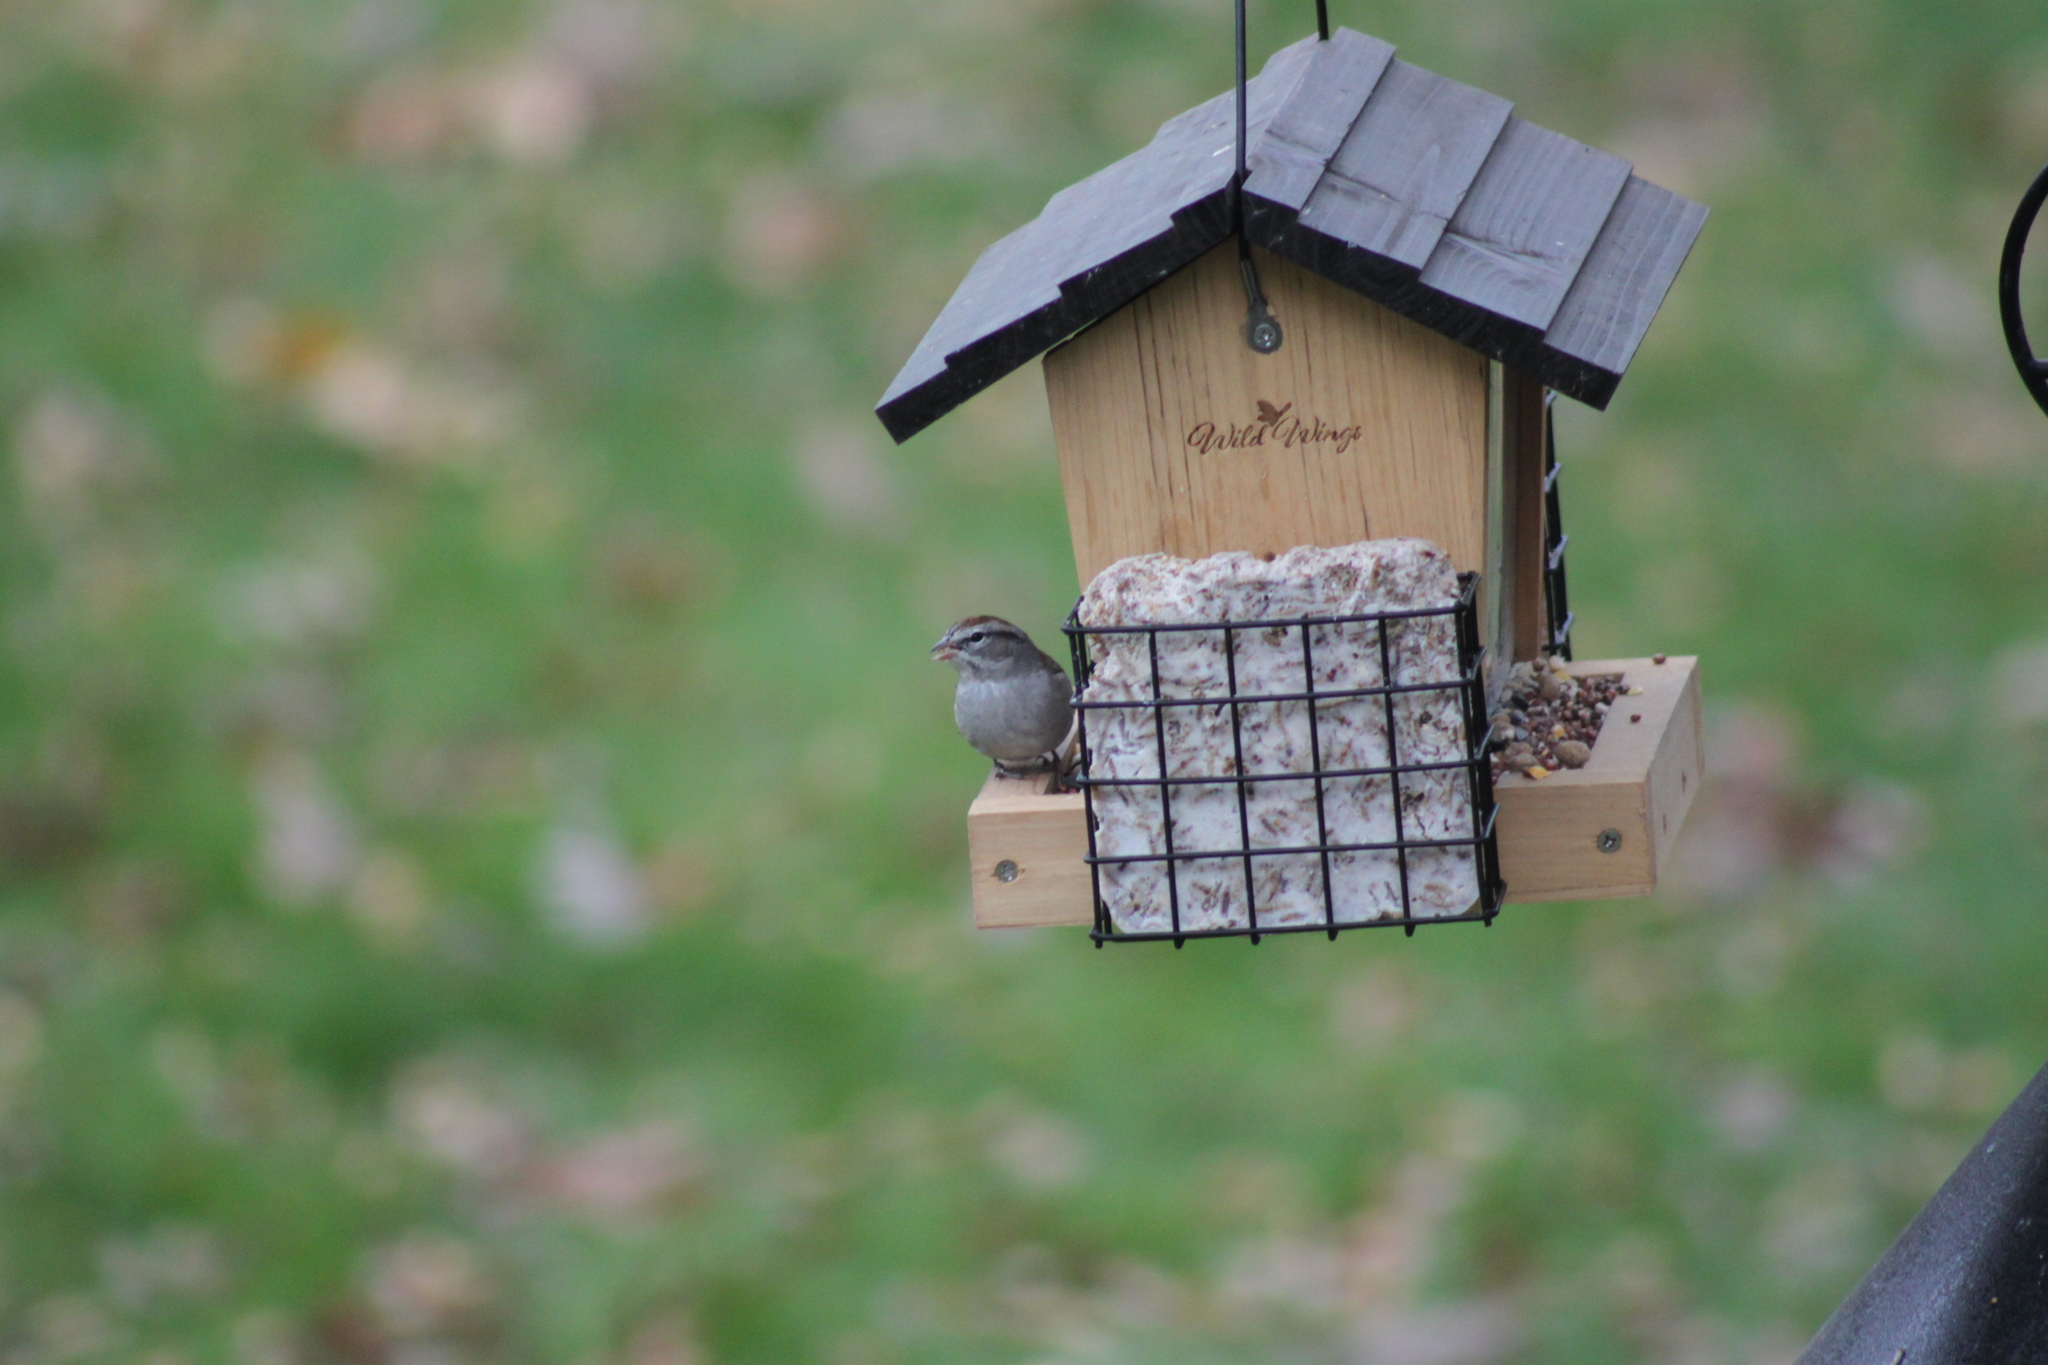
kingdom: Animalia
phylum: Chordata
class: Aves
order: Passeriformes
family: Passerellidae
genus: Spizella
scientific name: Spizella passerina
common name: Chipping sparrow
